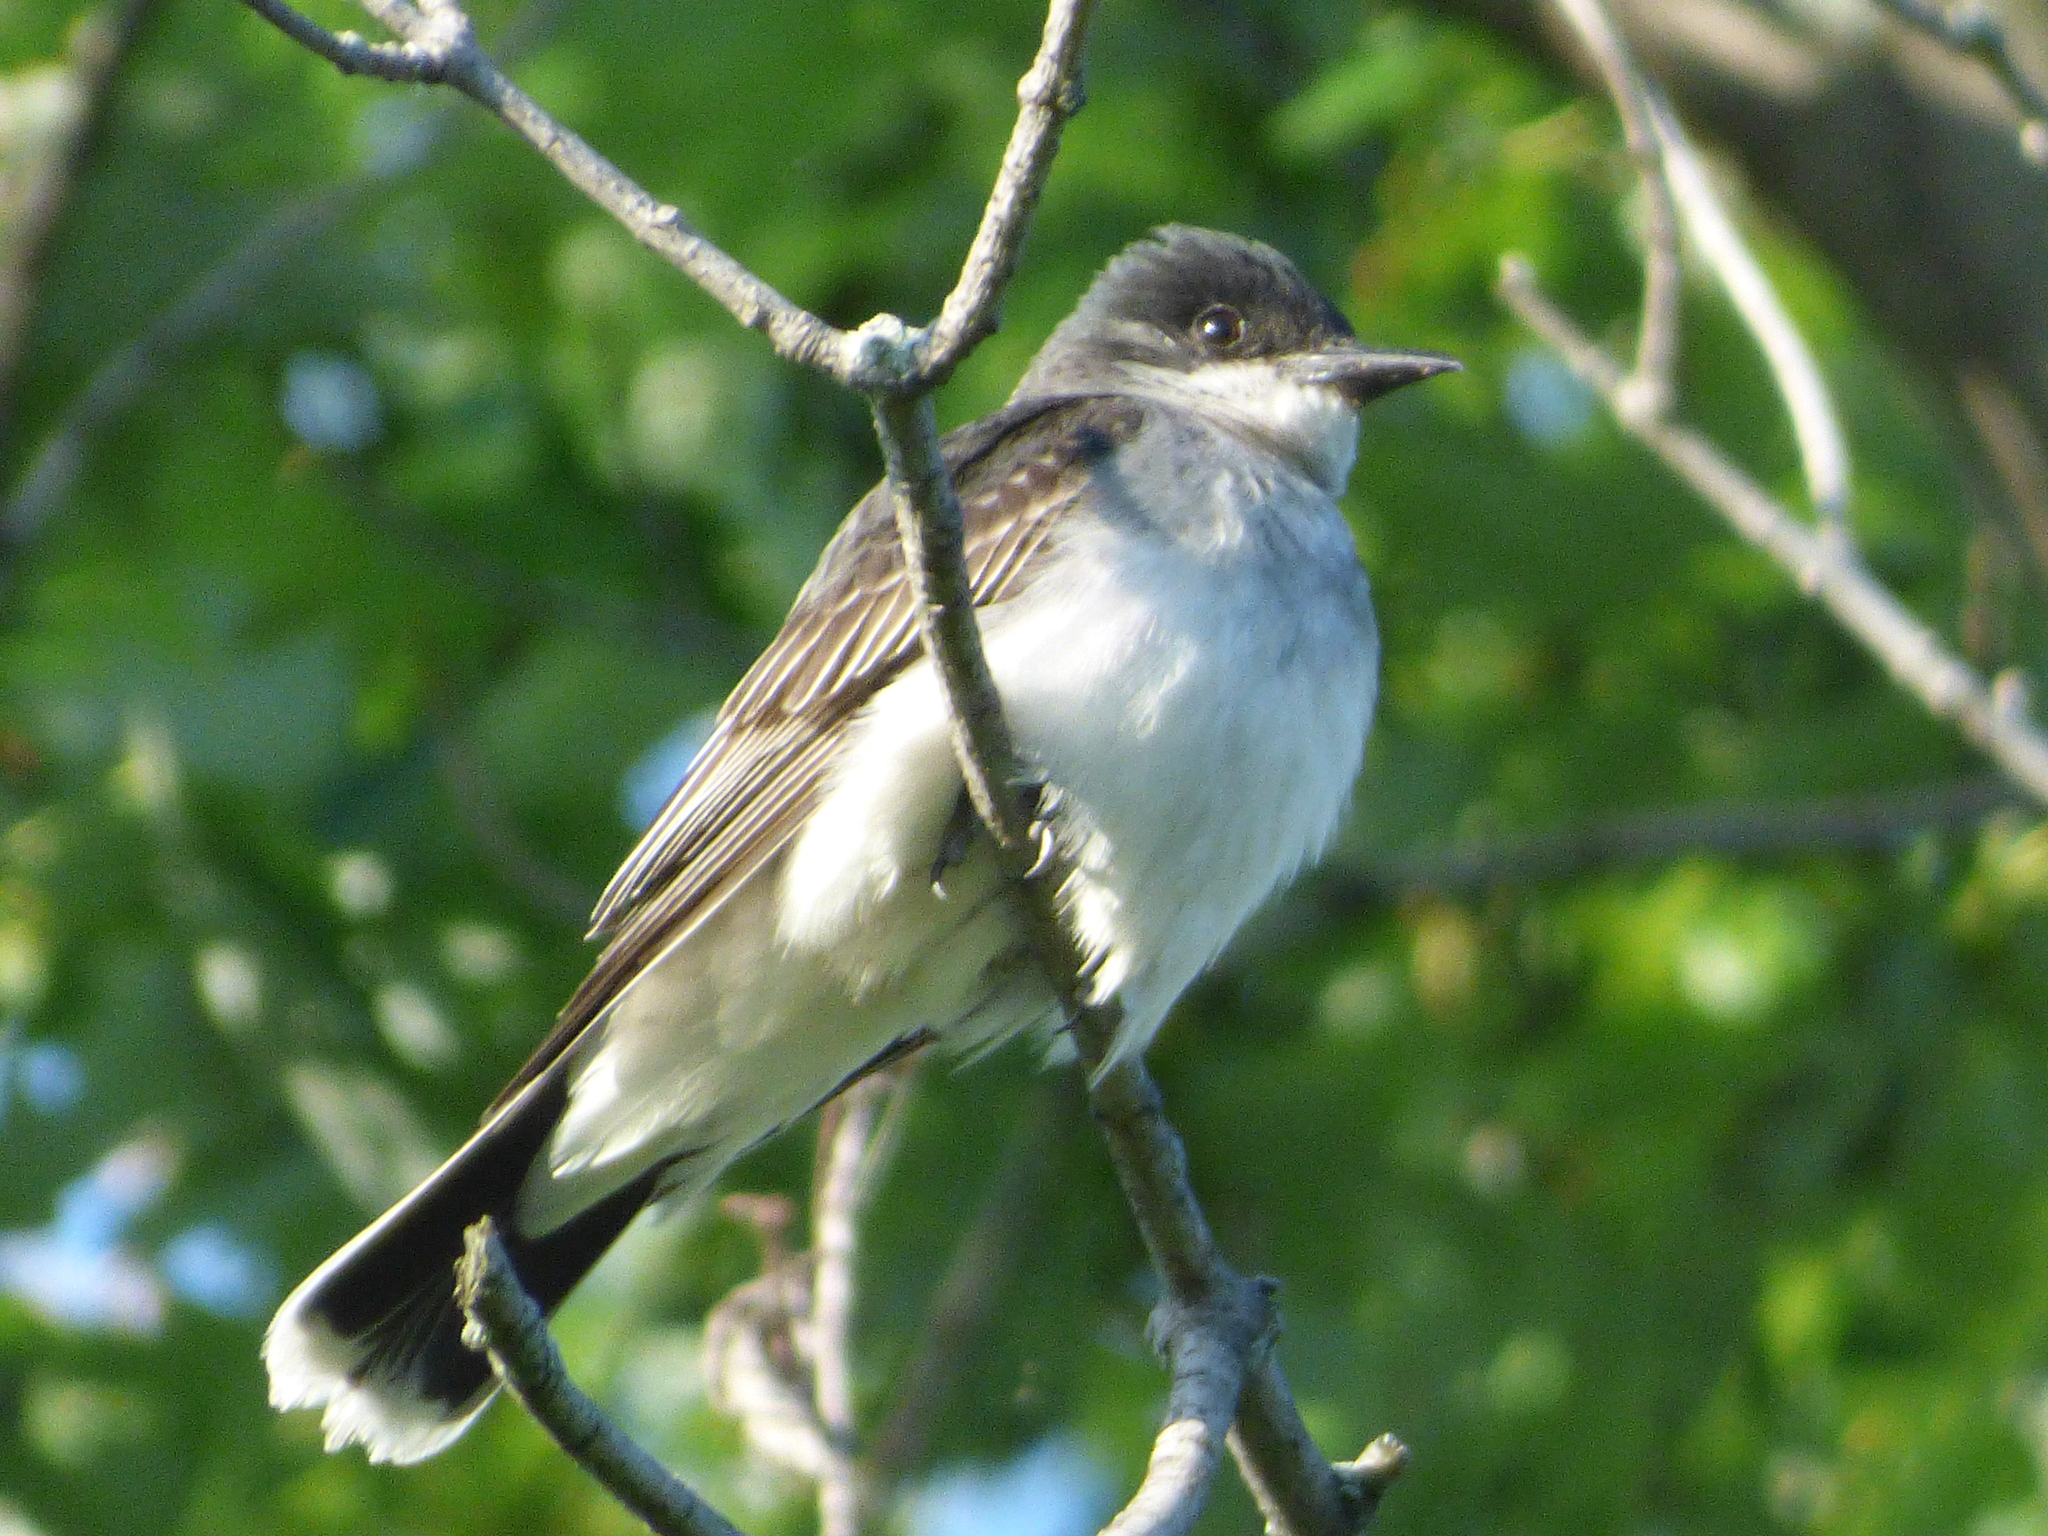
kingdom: Animalia
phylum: Chordata
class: Aves
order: Passeriformes
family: Tyrannidae
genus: Tyrannus
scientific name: Tyrannus tyrannus
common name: Eastern kingbird
